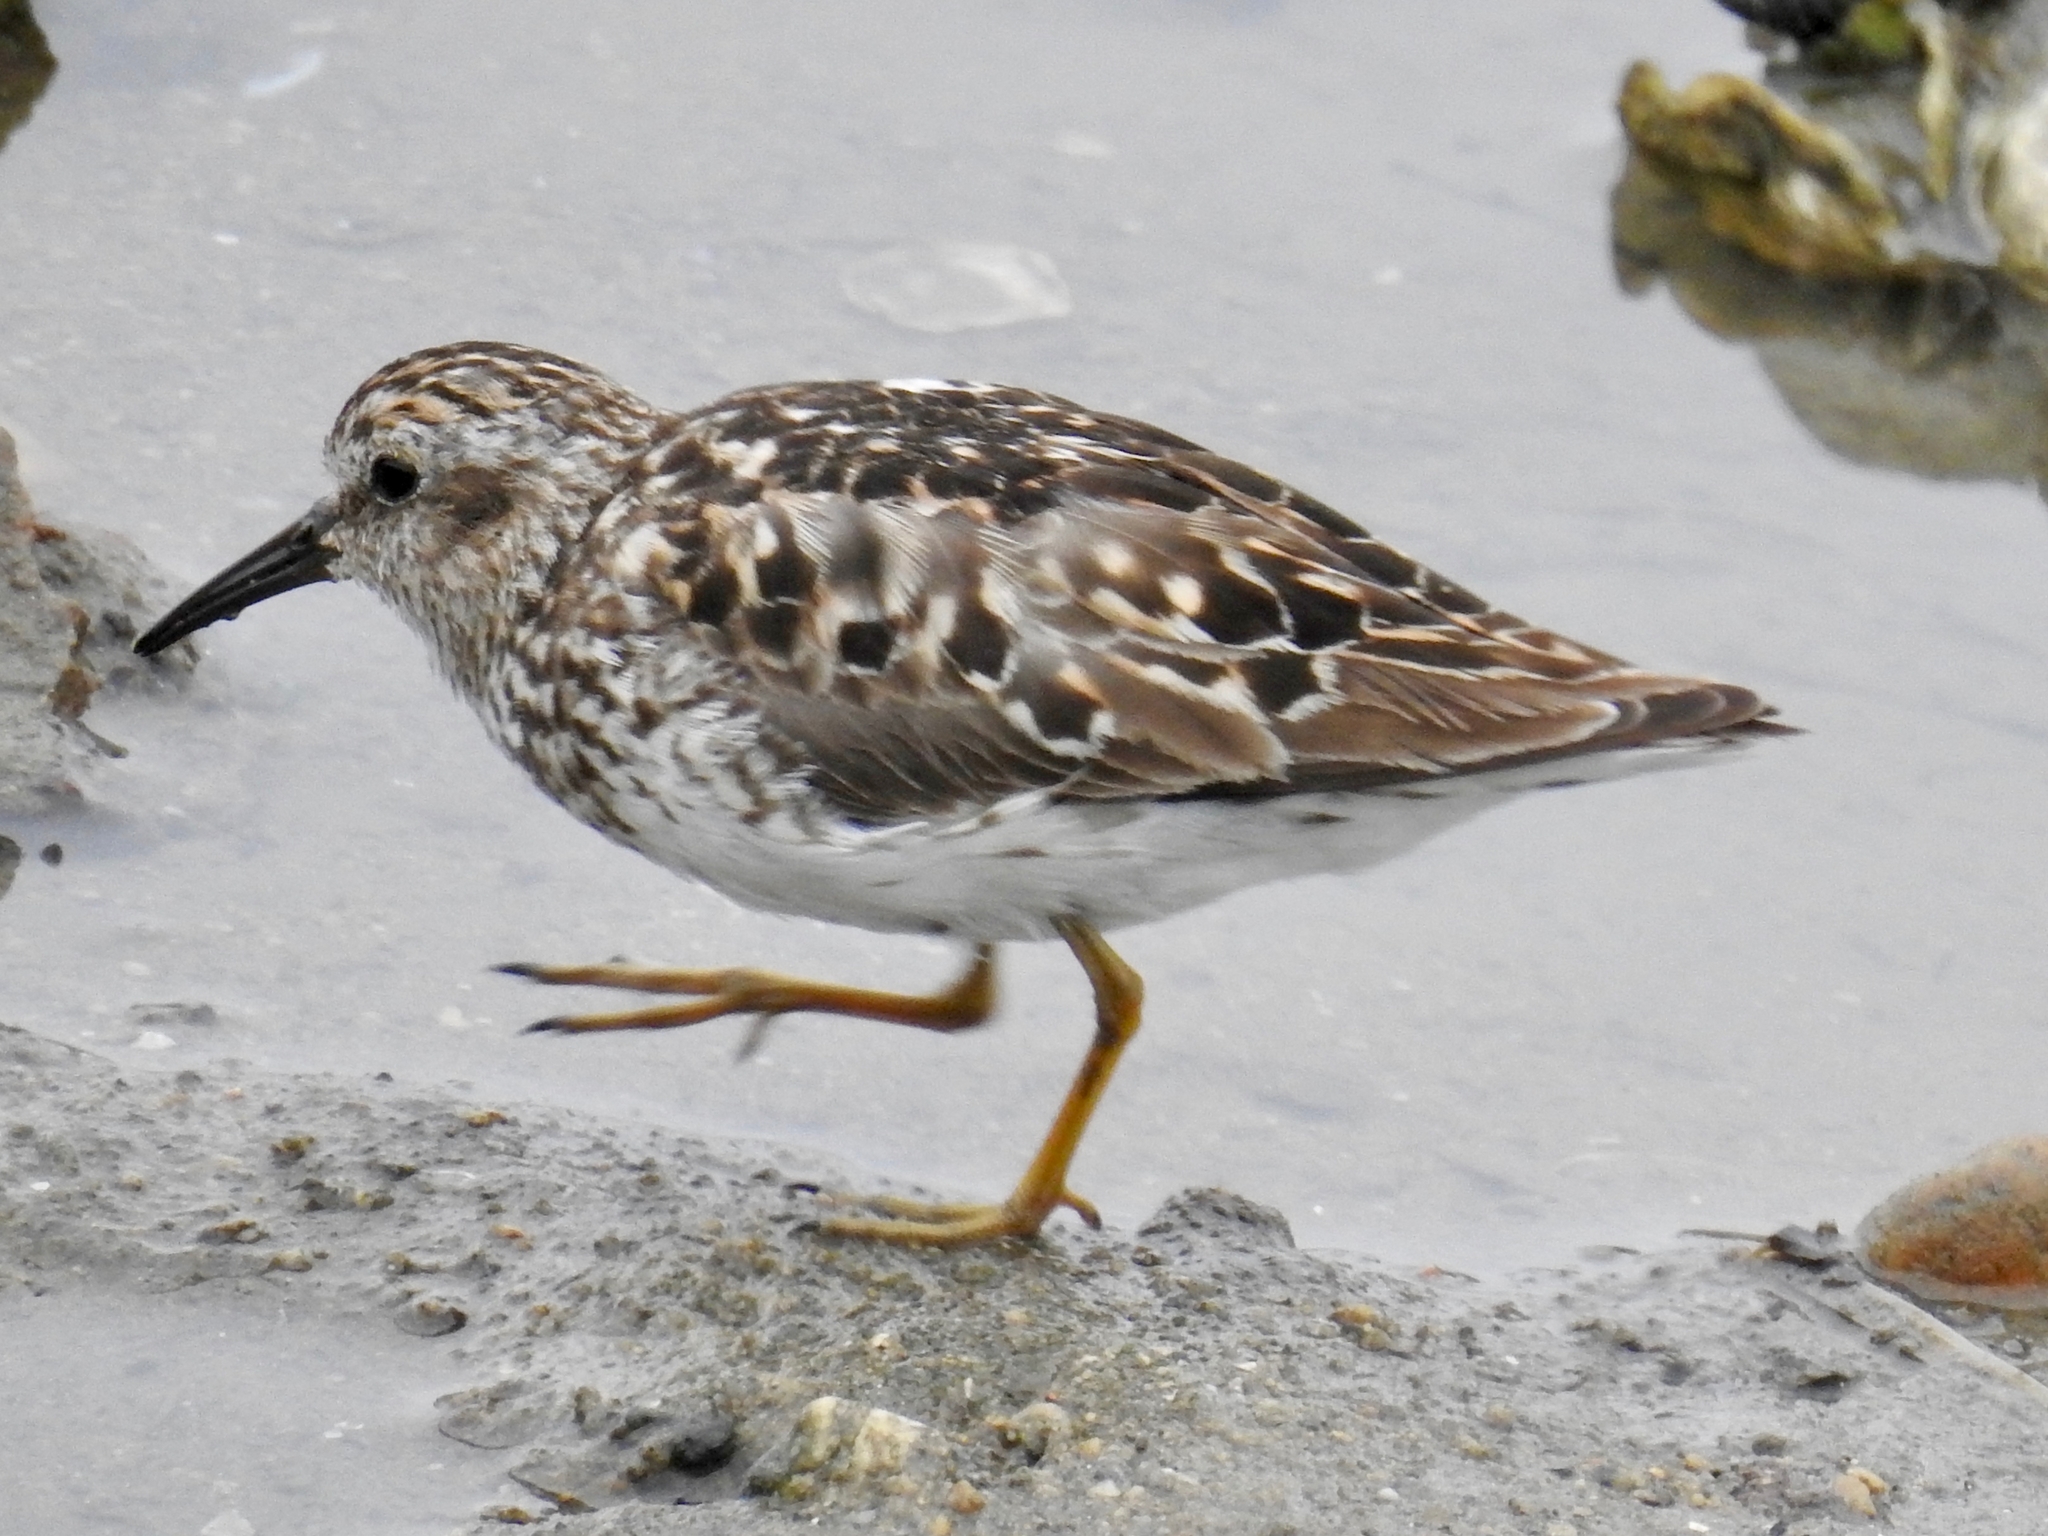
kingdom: Animalia
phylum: Chordata
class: Aves
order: Charadriiformes
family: Scolopacidae
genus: Calidris
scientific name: Calidris minutilla
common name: Least sandpiper
